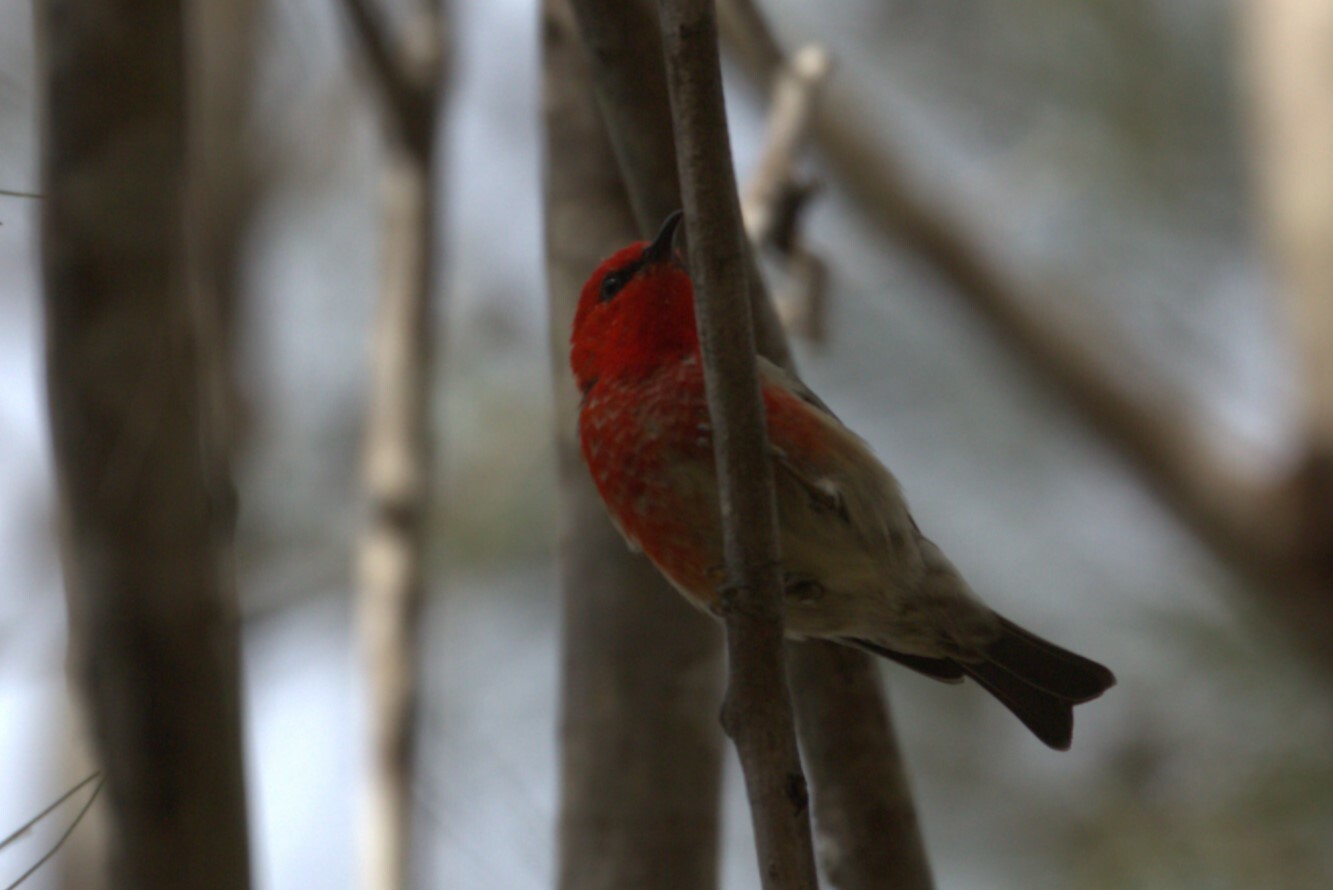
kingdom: Animalia
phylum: Chordata
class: Aves
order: Passeriformes
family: Meliphagidae
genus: Myzomela
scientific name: Myzomela sanguinolenta
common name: Scarlet myzomela
